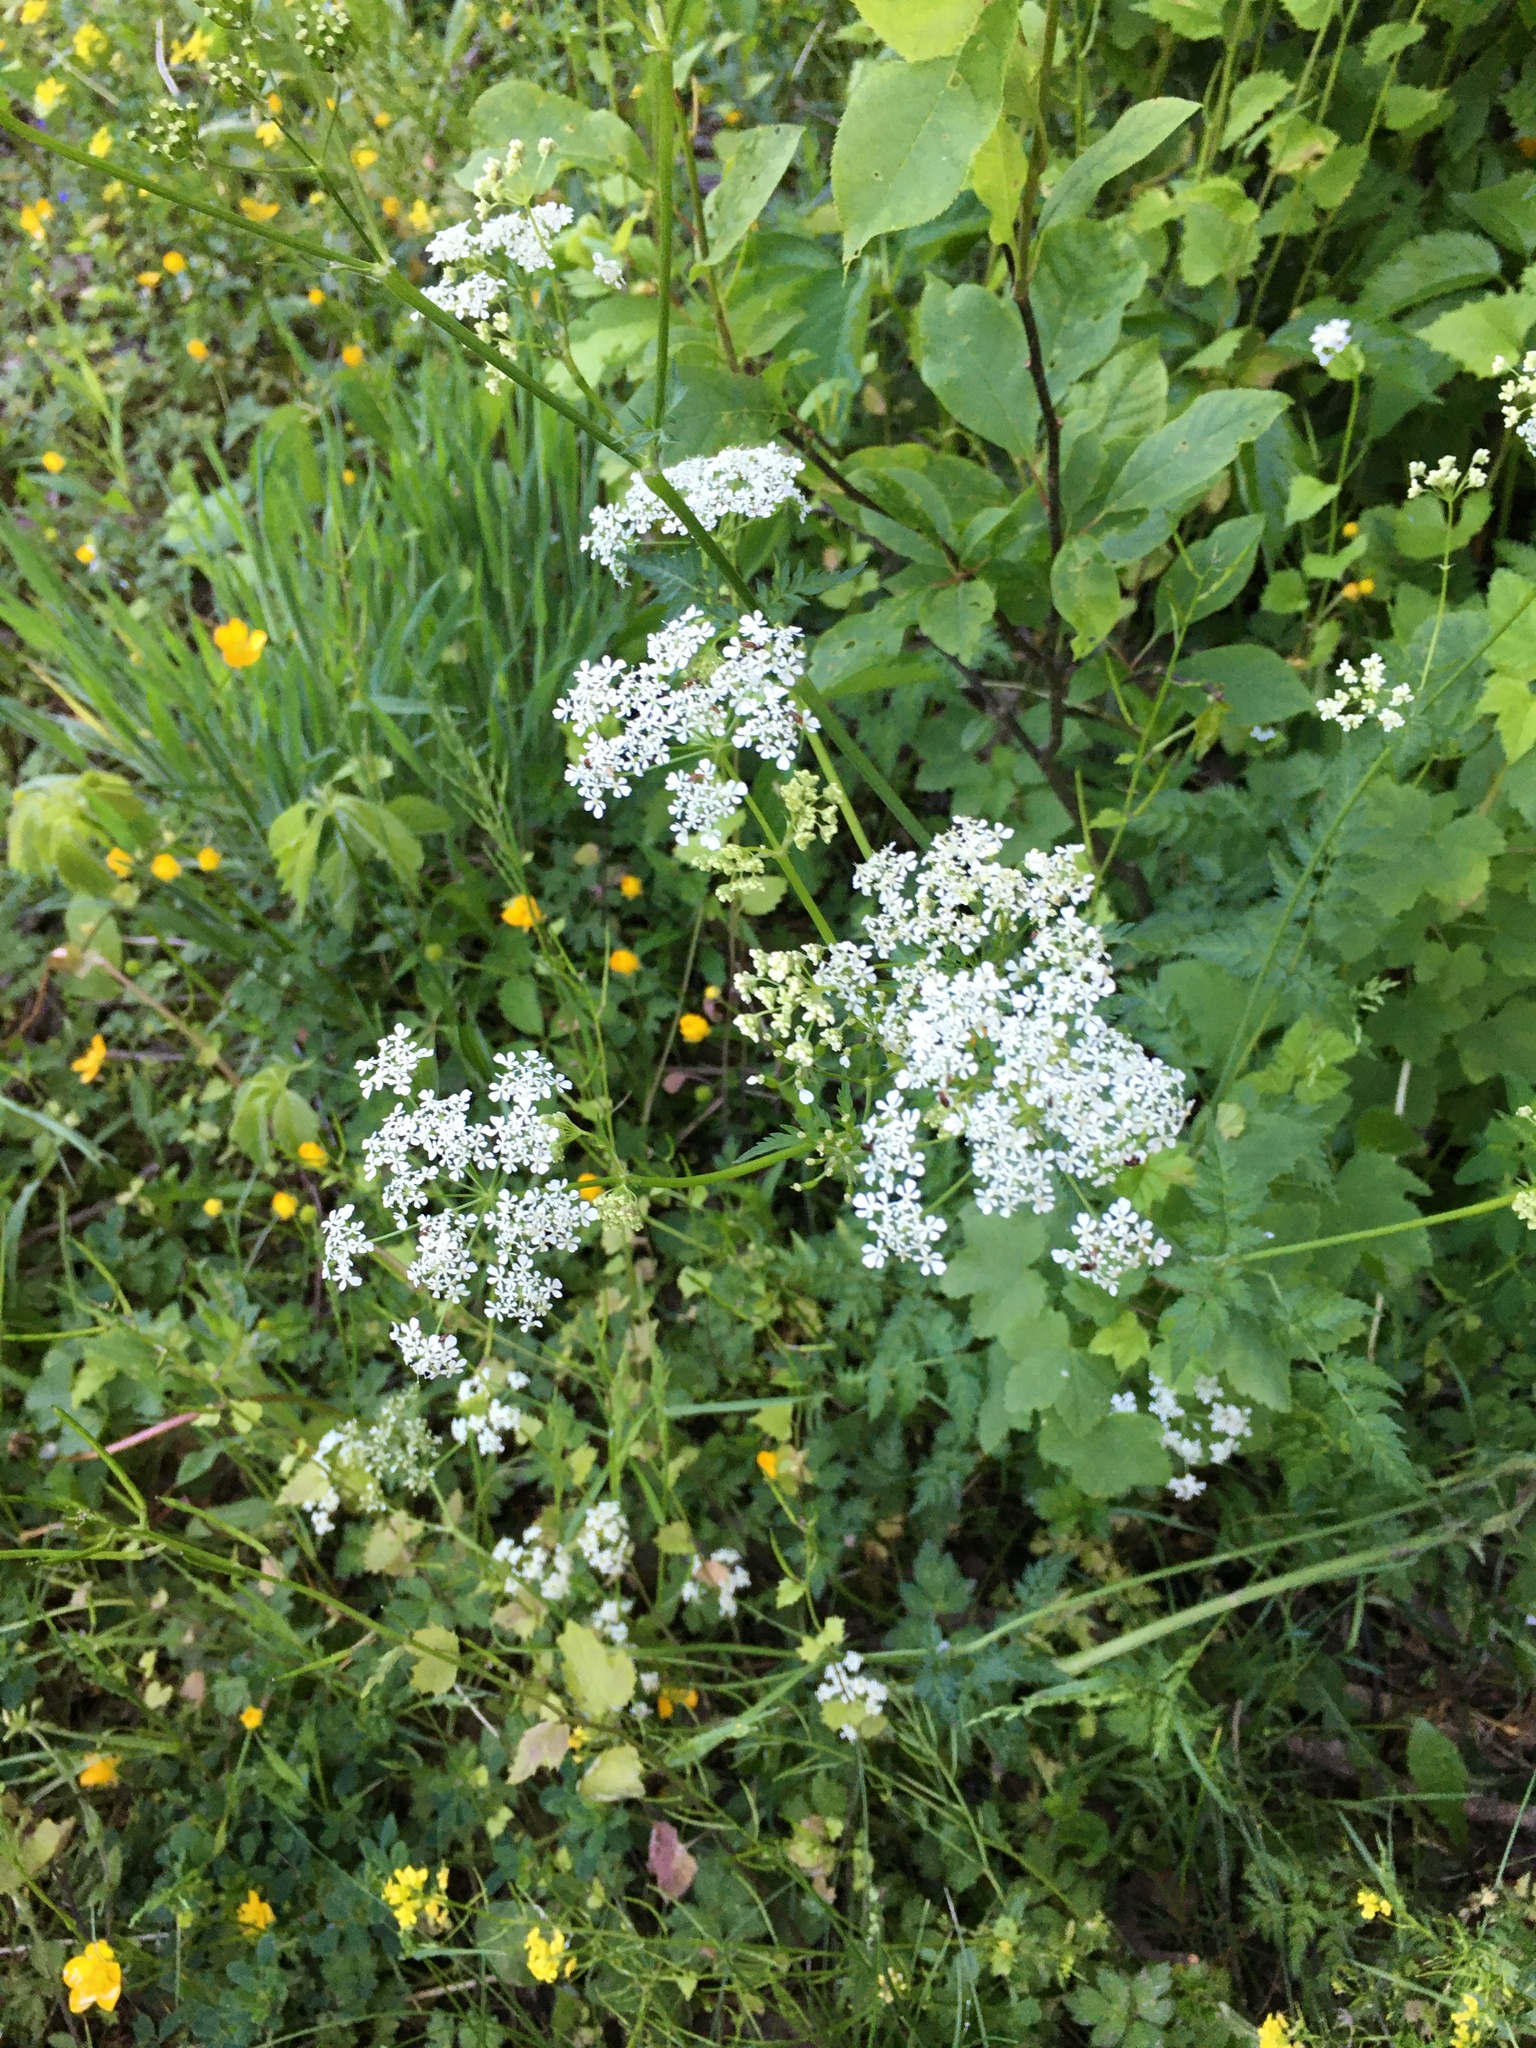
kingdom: Plantae
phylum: Tracheophyta
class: Magnoliopsida
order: Apiales
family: Apiaceae
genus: Anthriscus
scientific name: Anthriscus sylvestris
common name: Cow parsley
